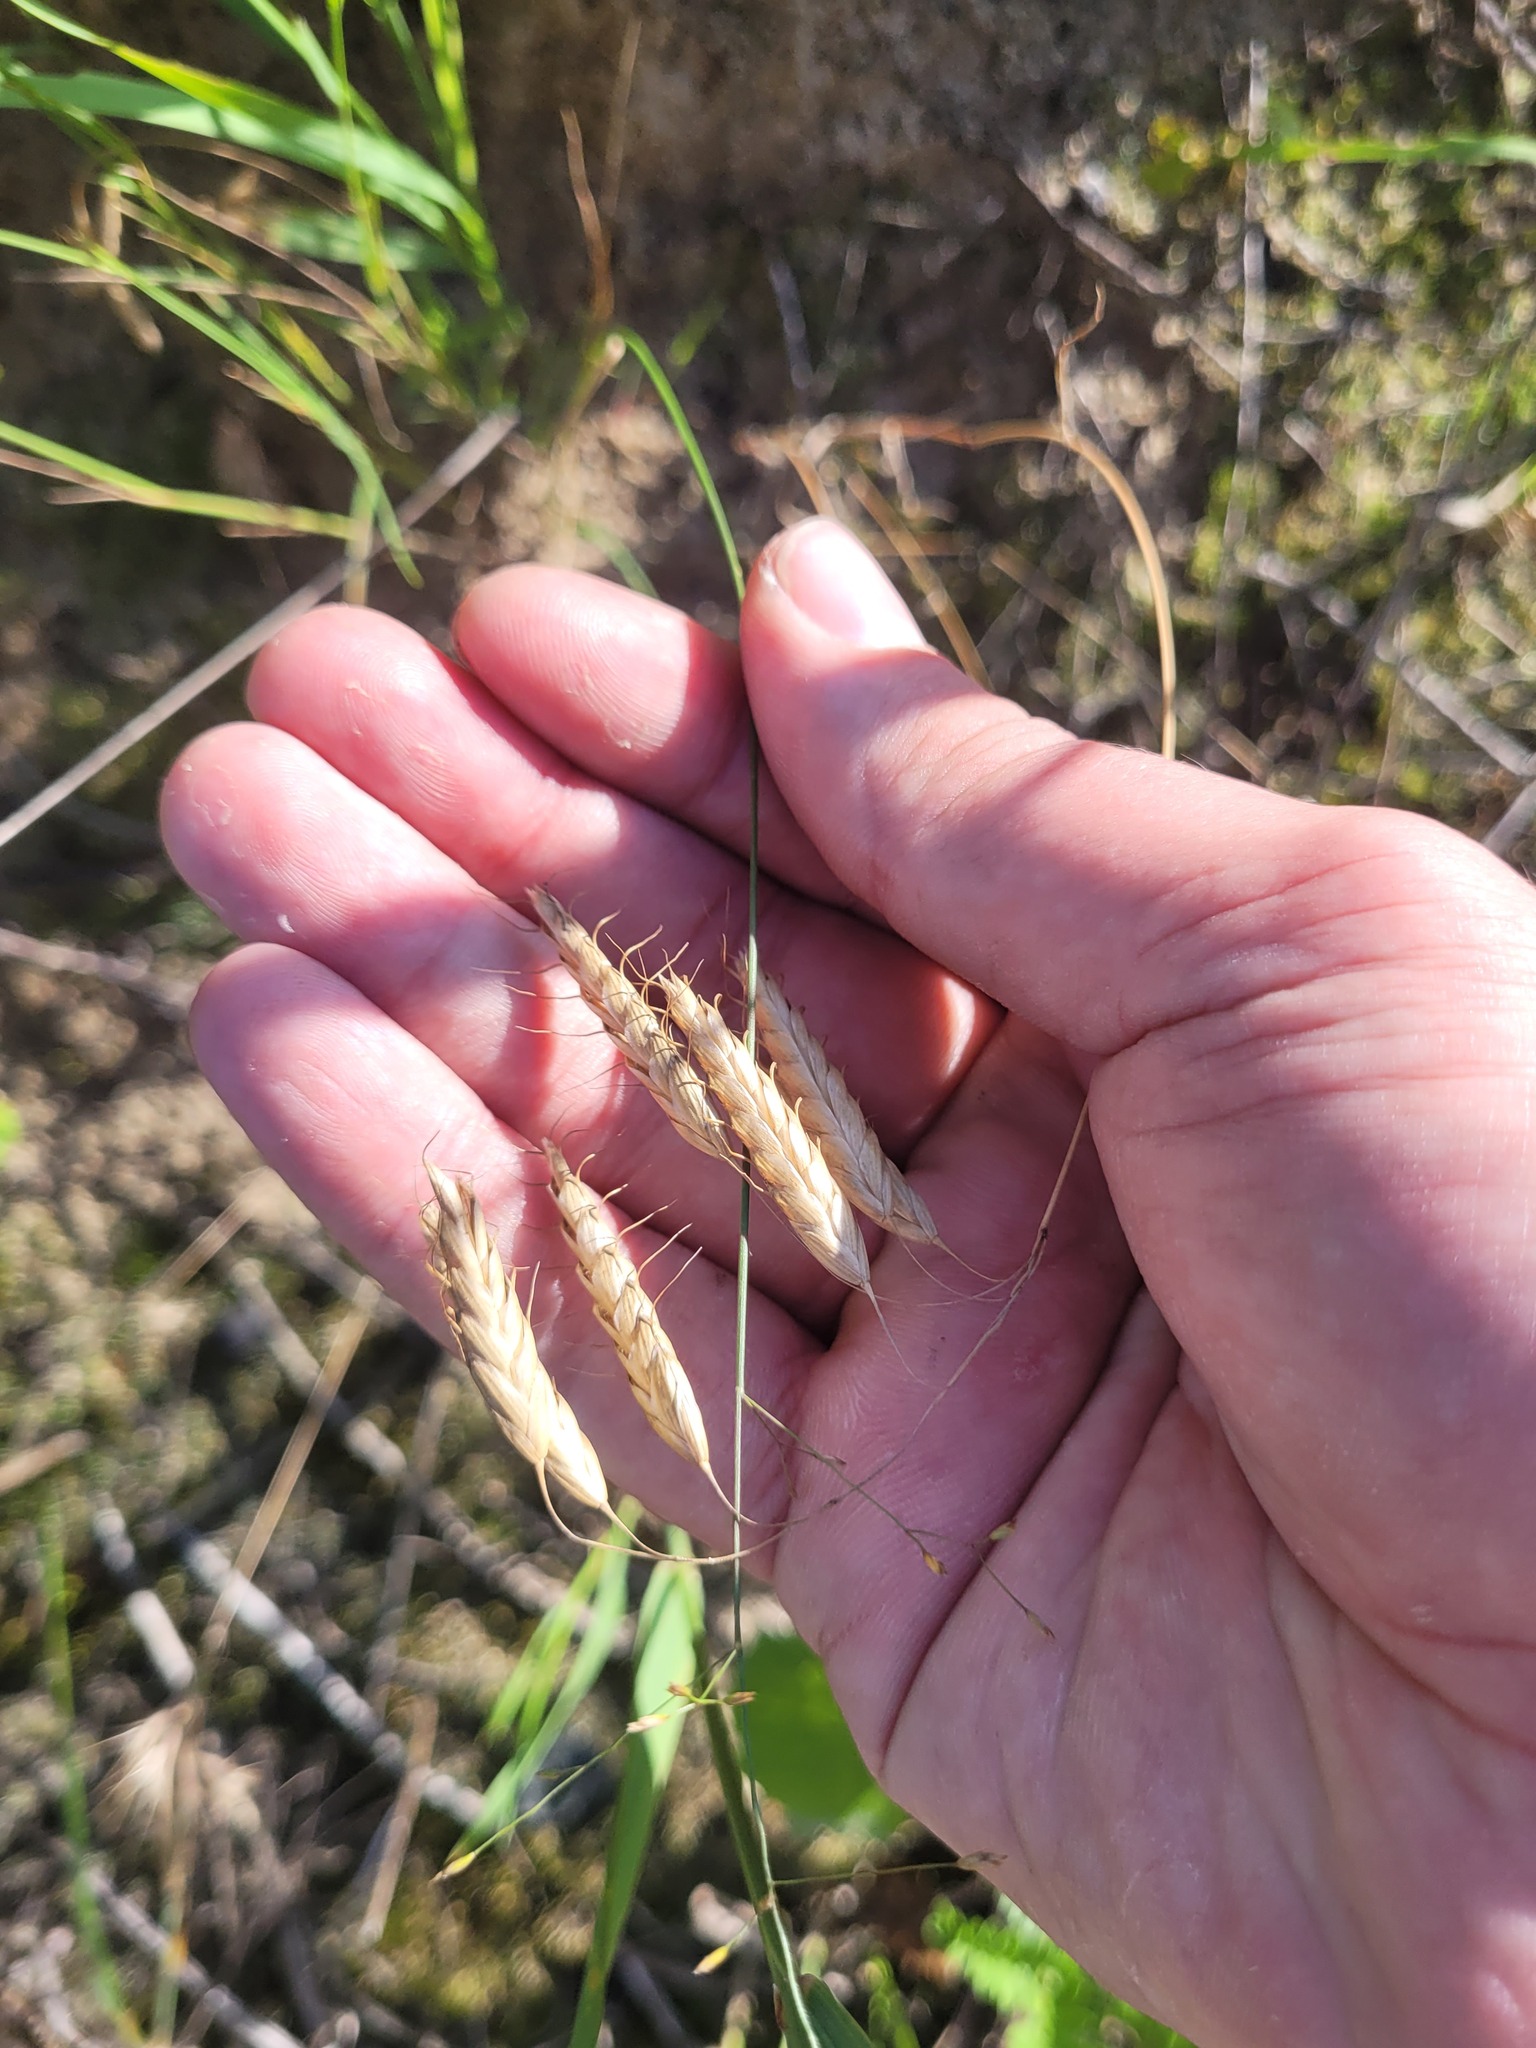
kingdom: Plantae
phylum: Tracheophyta
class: Liliopsida
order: Poales
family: Poaceae
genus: Bromus
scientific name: Bromus squarrosus
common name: Corn brome
